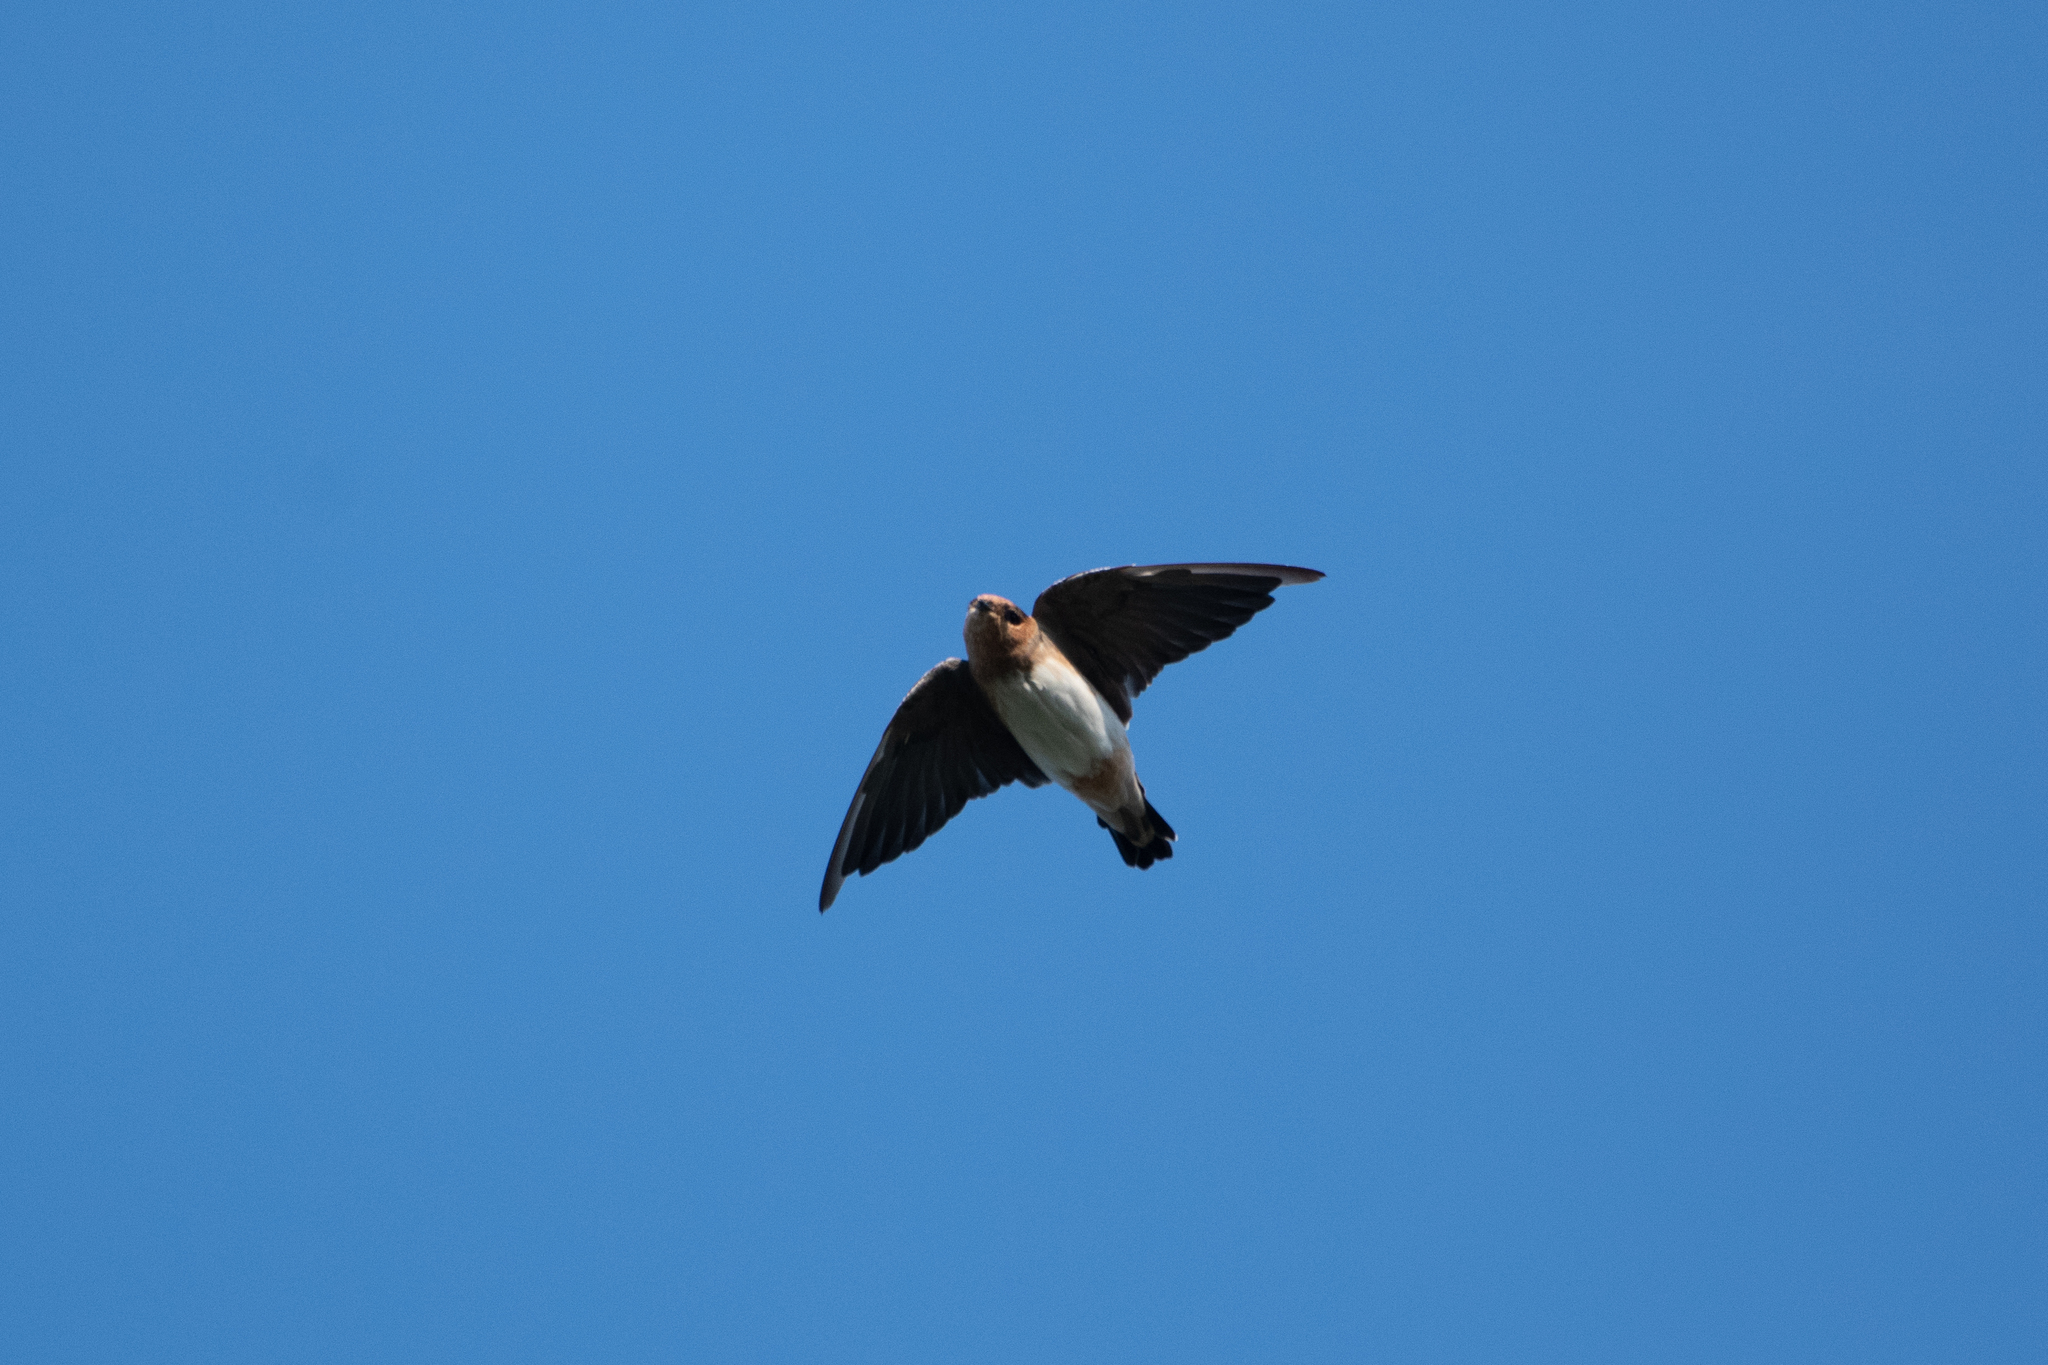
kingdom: Animalia
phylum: Chordata
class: Aves
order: Passeriformes
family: Hirundinidae
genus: Petrochelidon
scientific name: Petrochelidon fulva
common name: Cave swallow
